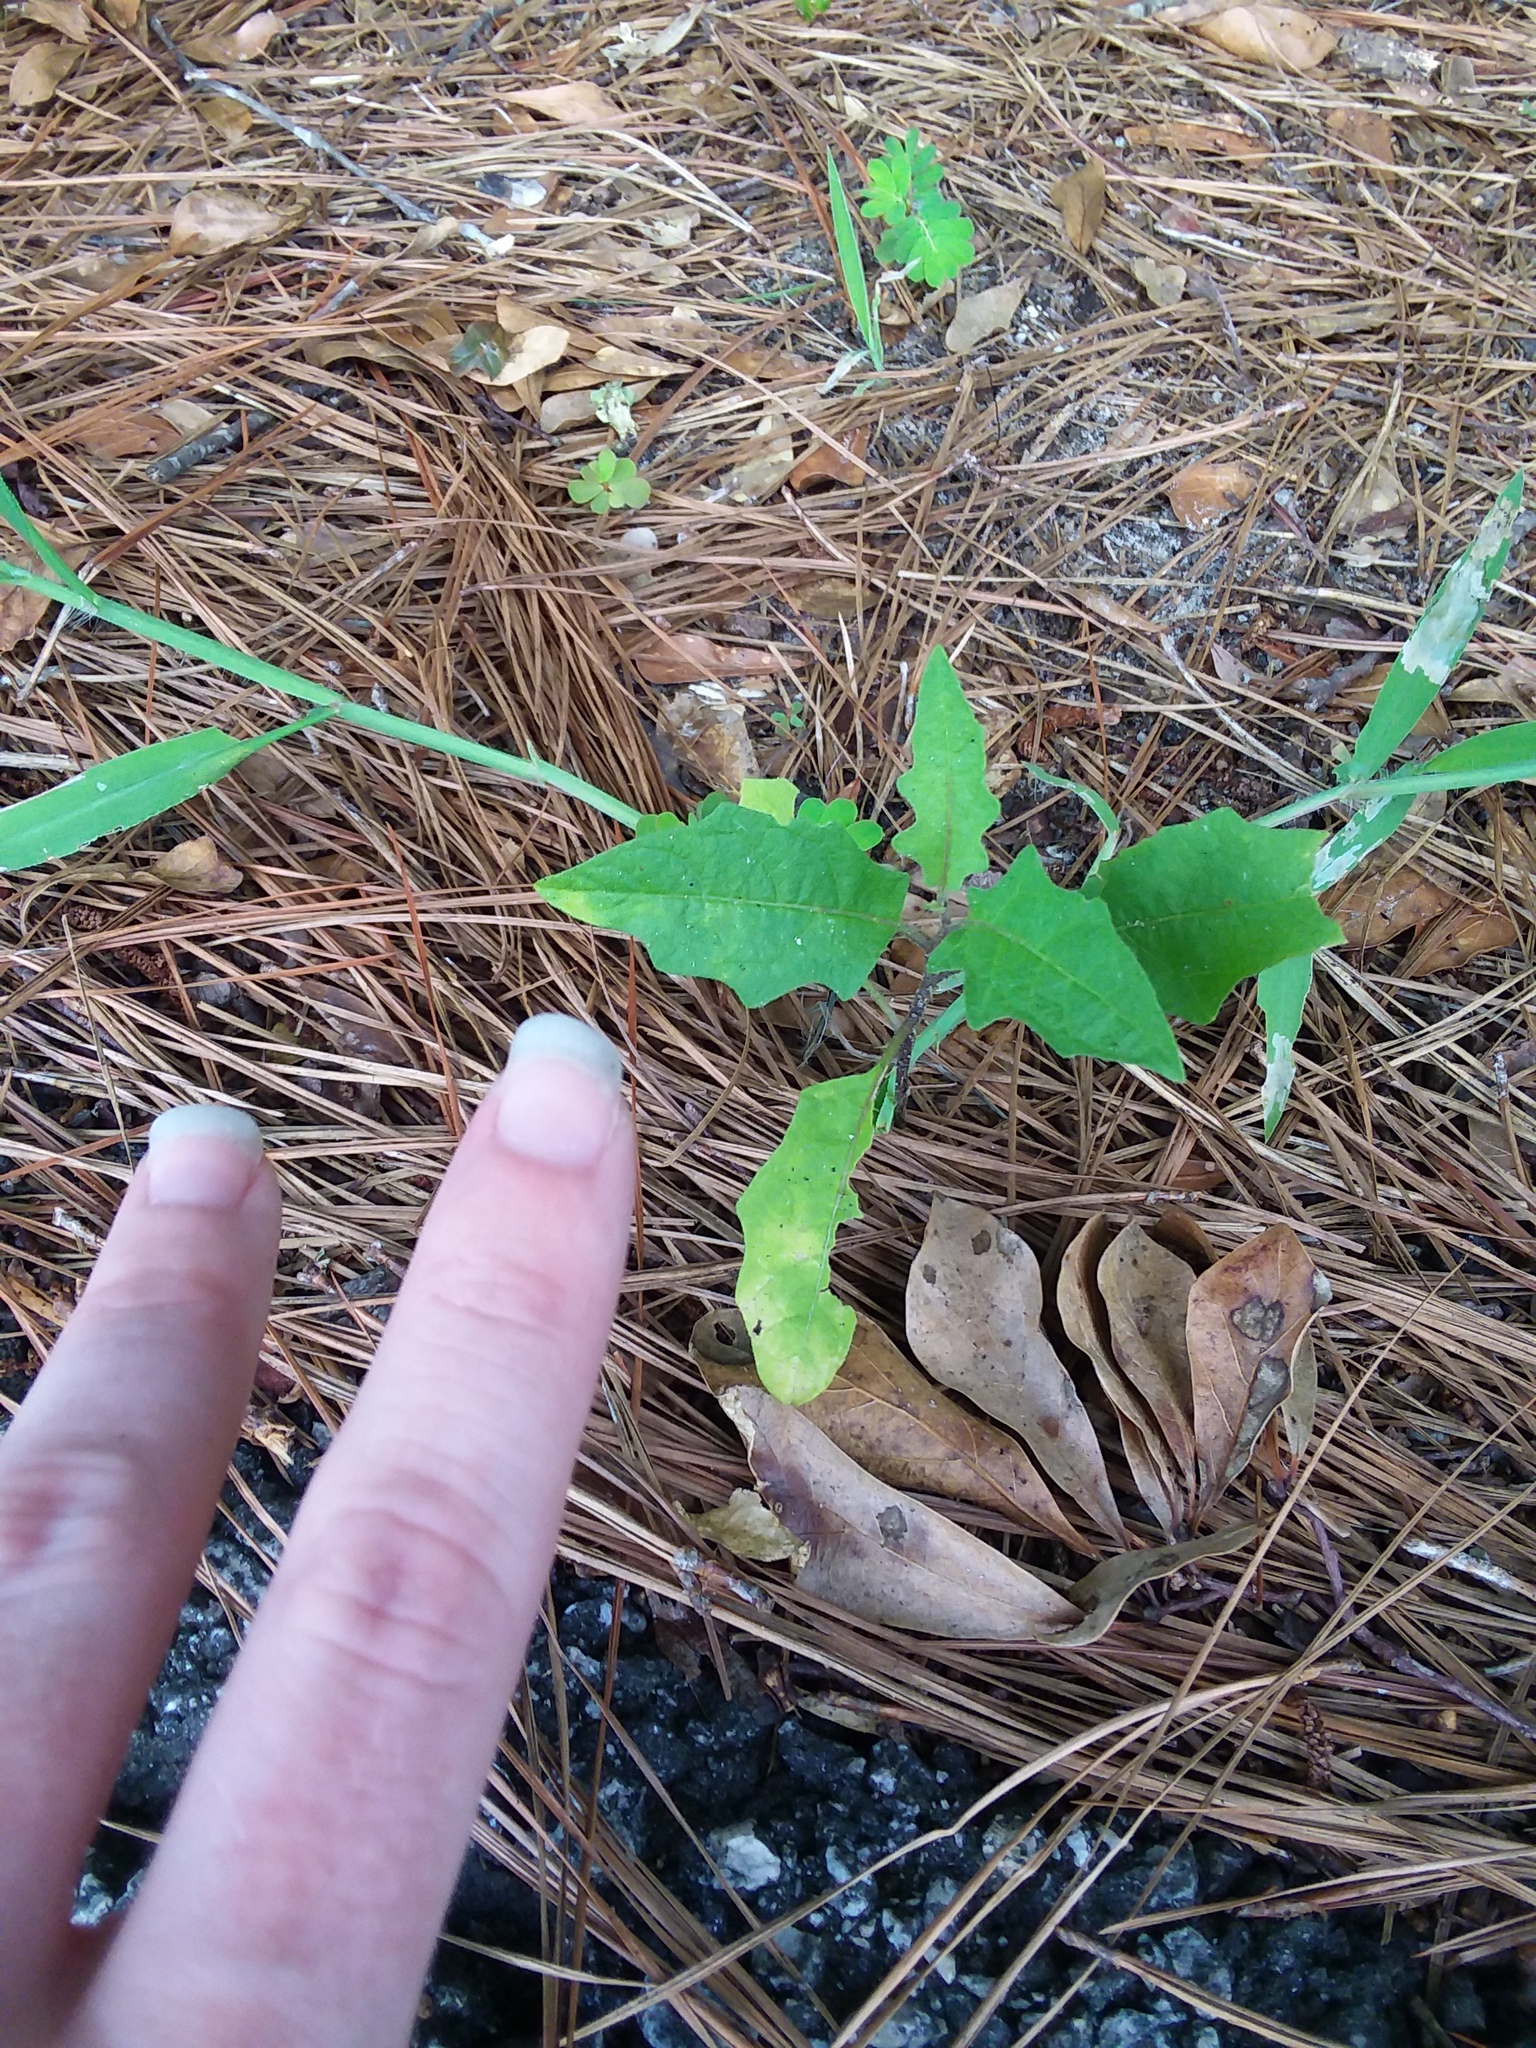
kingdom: Plantae
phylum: Tracheophyta
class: Magnoliopsida
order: Solanales
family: Solanaceae
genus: Solanum
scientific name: Solanum carolinense
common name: Horse-nettle
